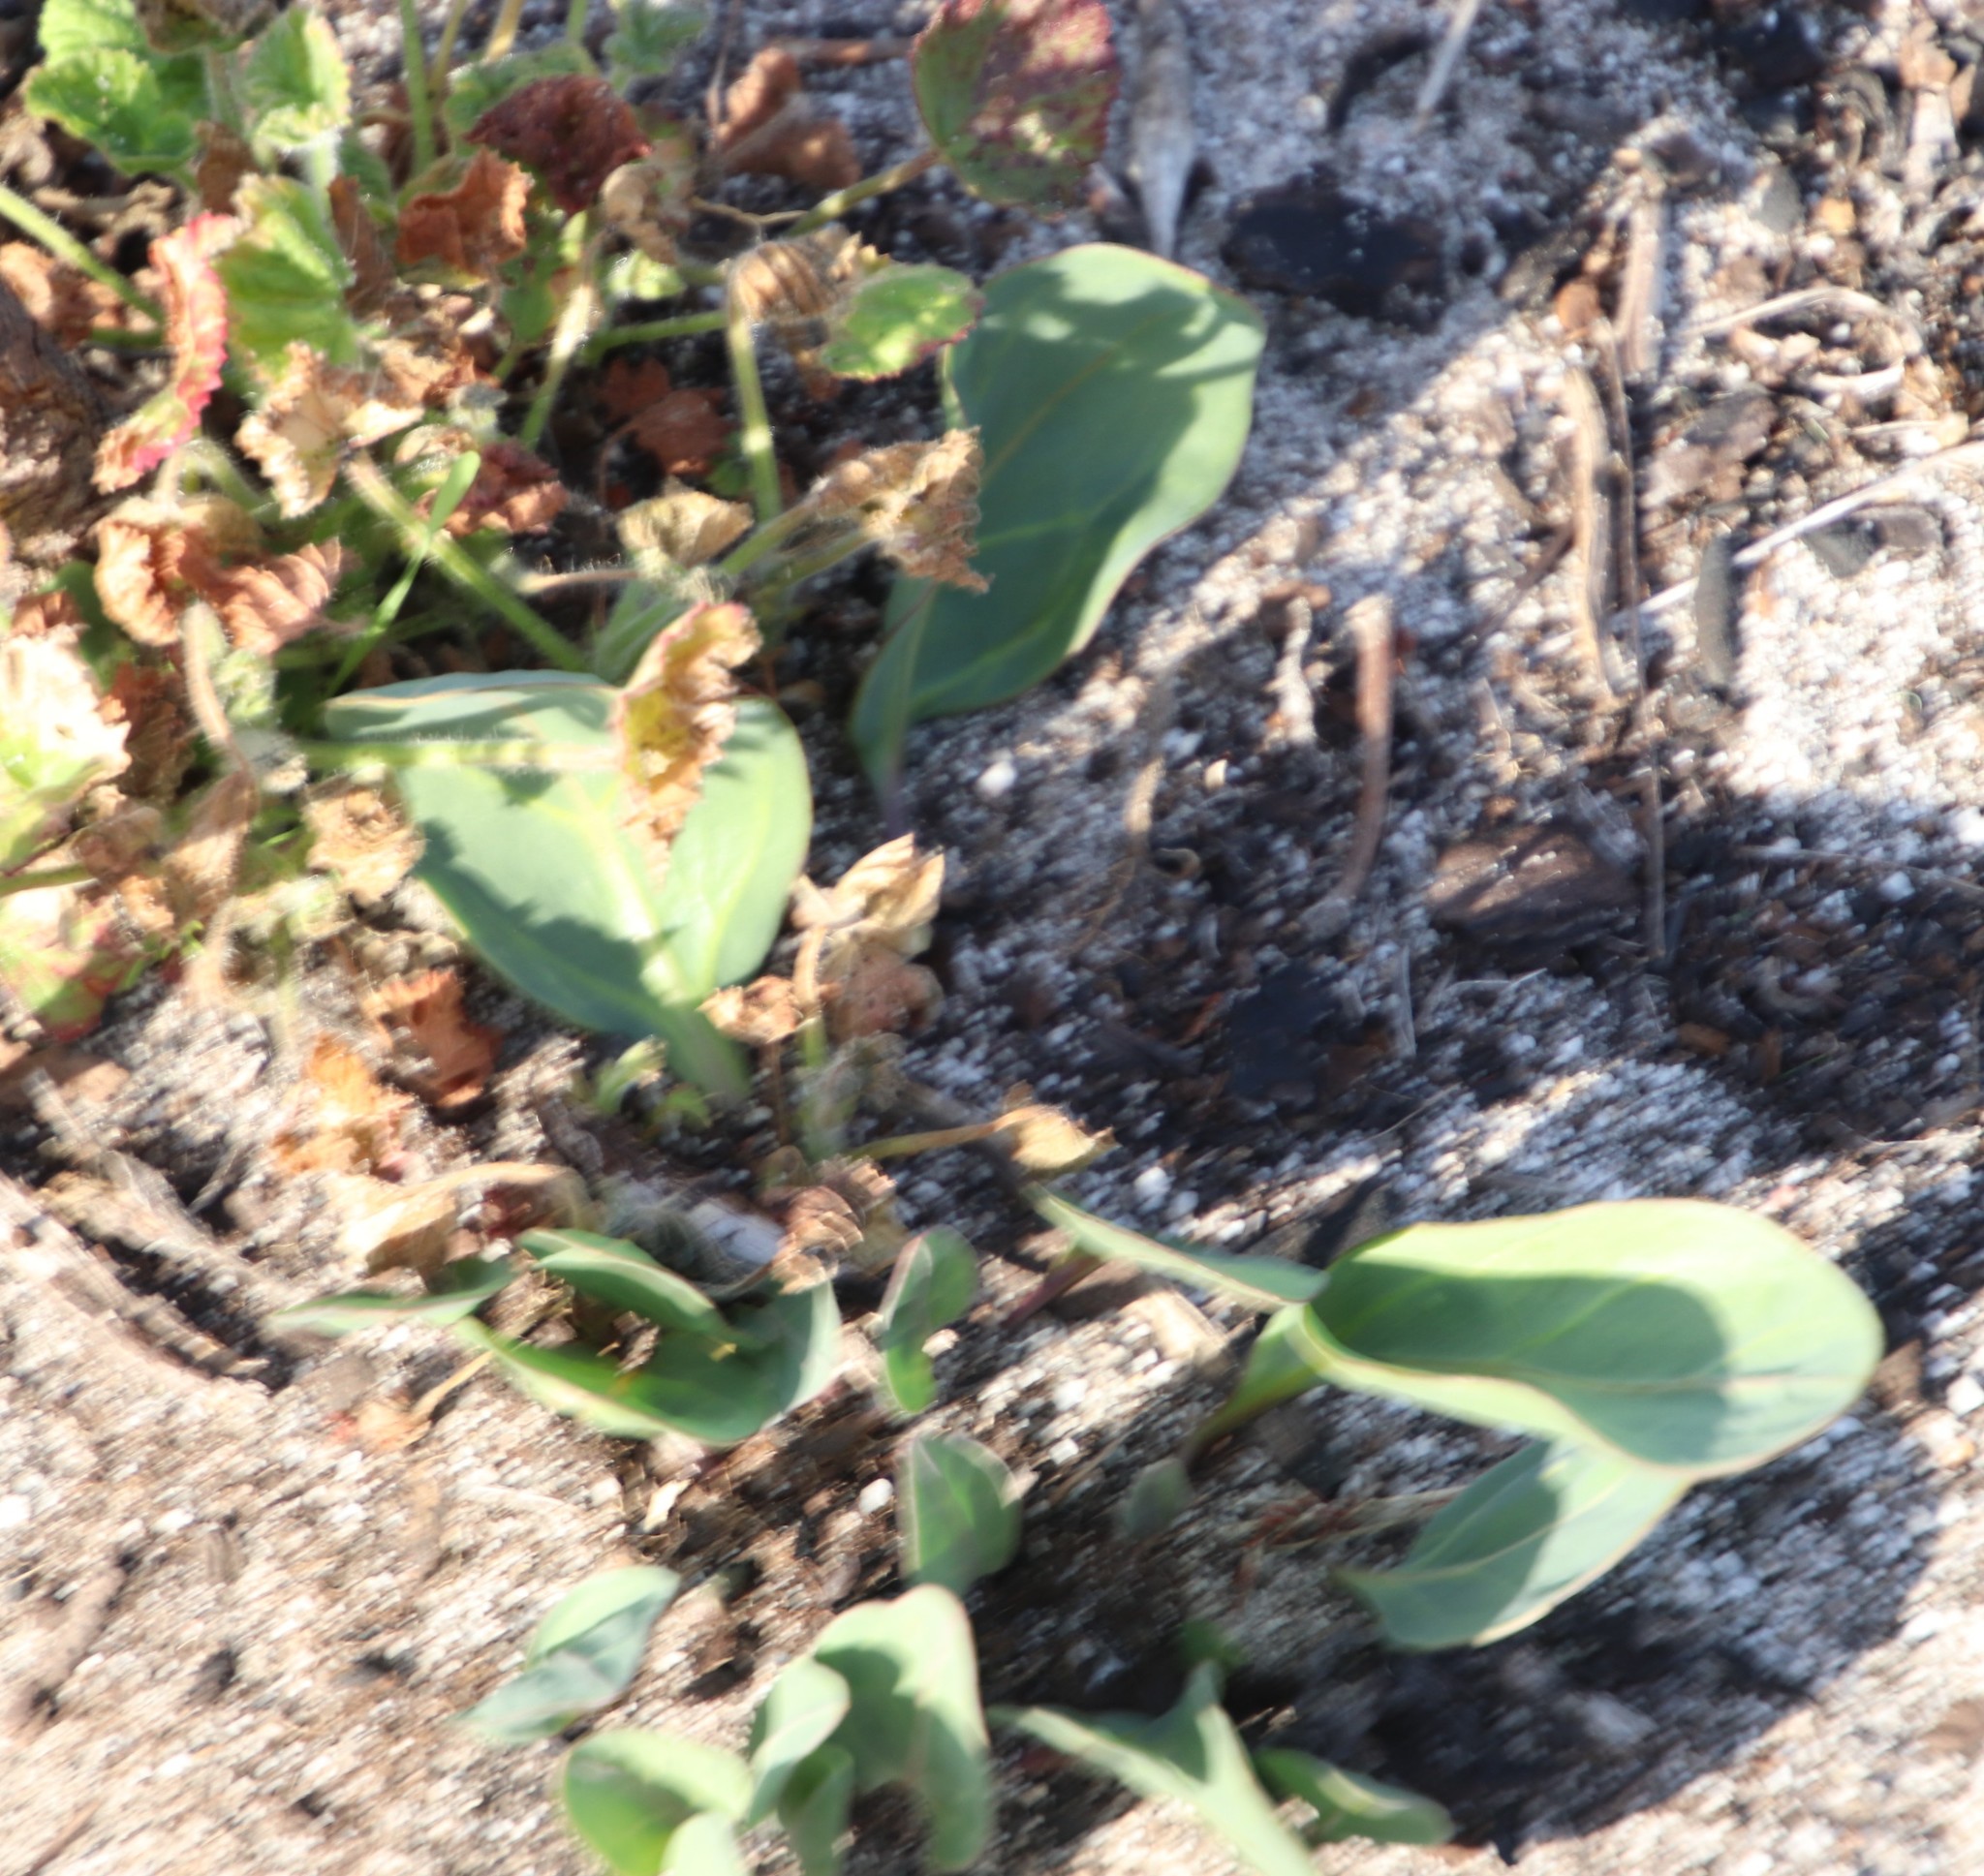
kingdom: Plantae
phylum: Tracheophyta
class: Magnoliopsida
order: Asterales
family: Asteraceae
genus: Othonna
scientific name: Othonna bulbosa
